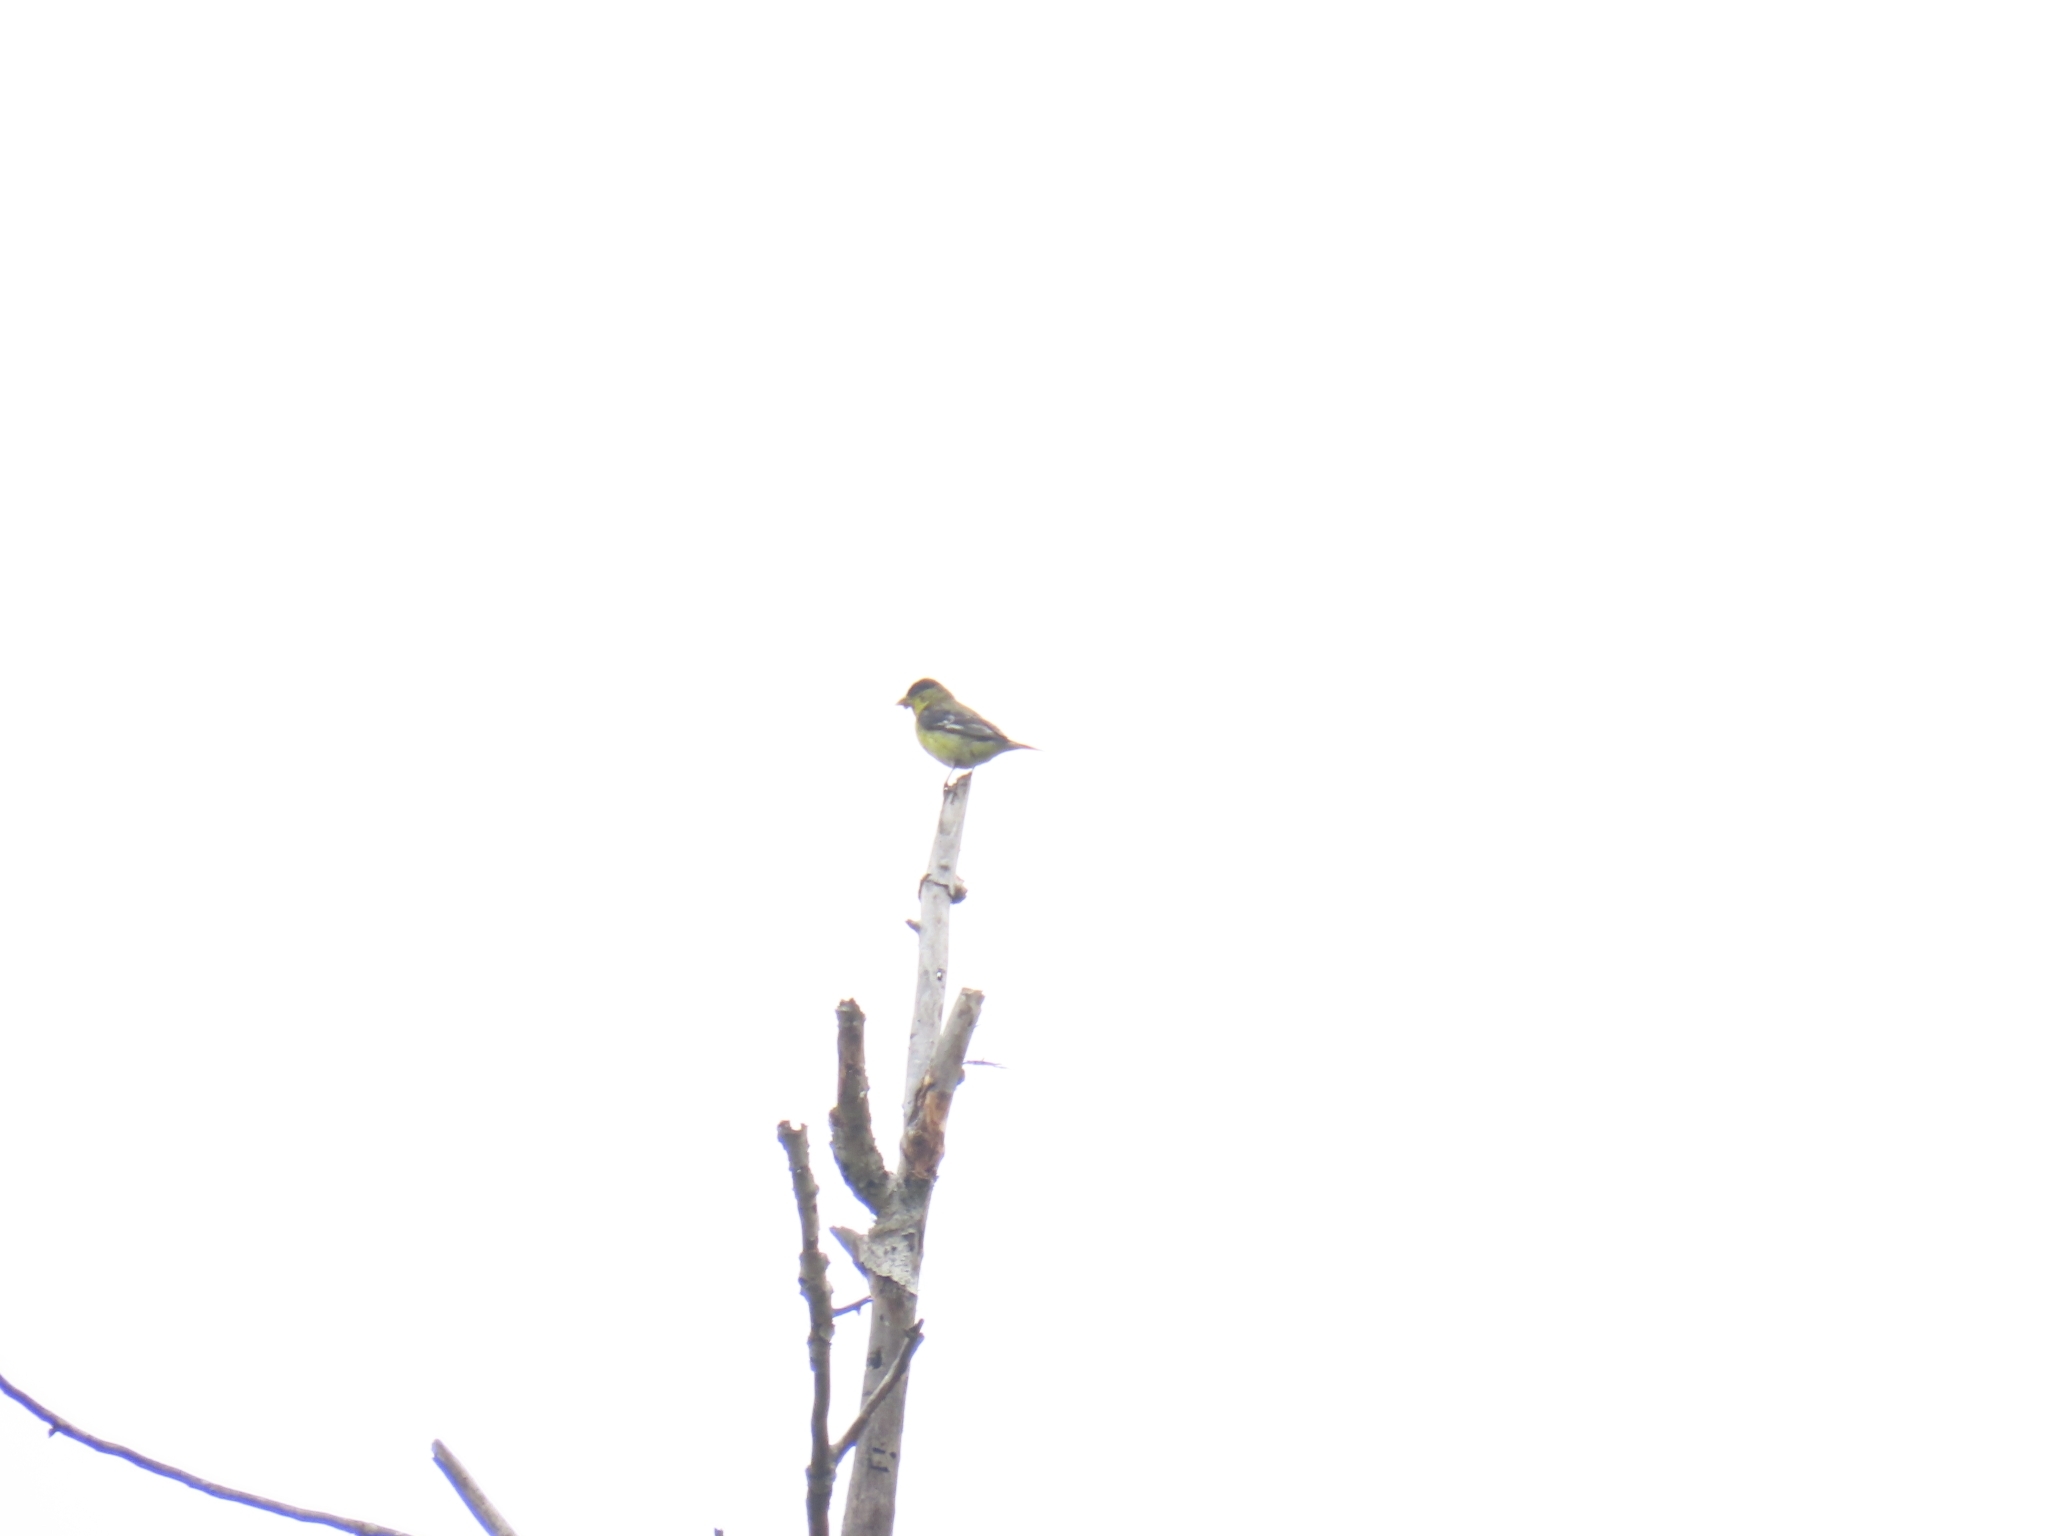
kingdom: Animalia
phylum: Chordata
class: Aves
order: Passeriformes
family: Fringillidae
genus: Spinus
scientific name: Spinus psaltria
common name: Lesser goldfinch
